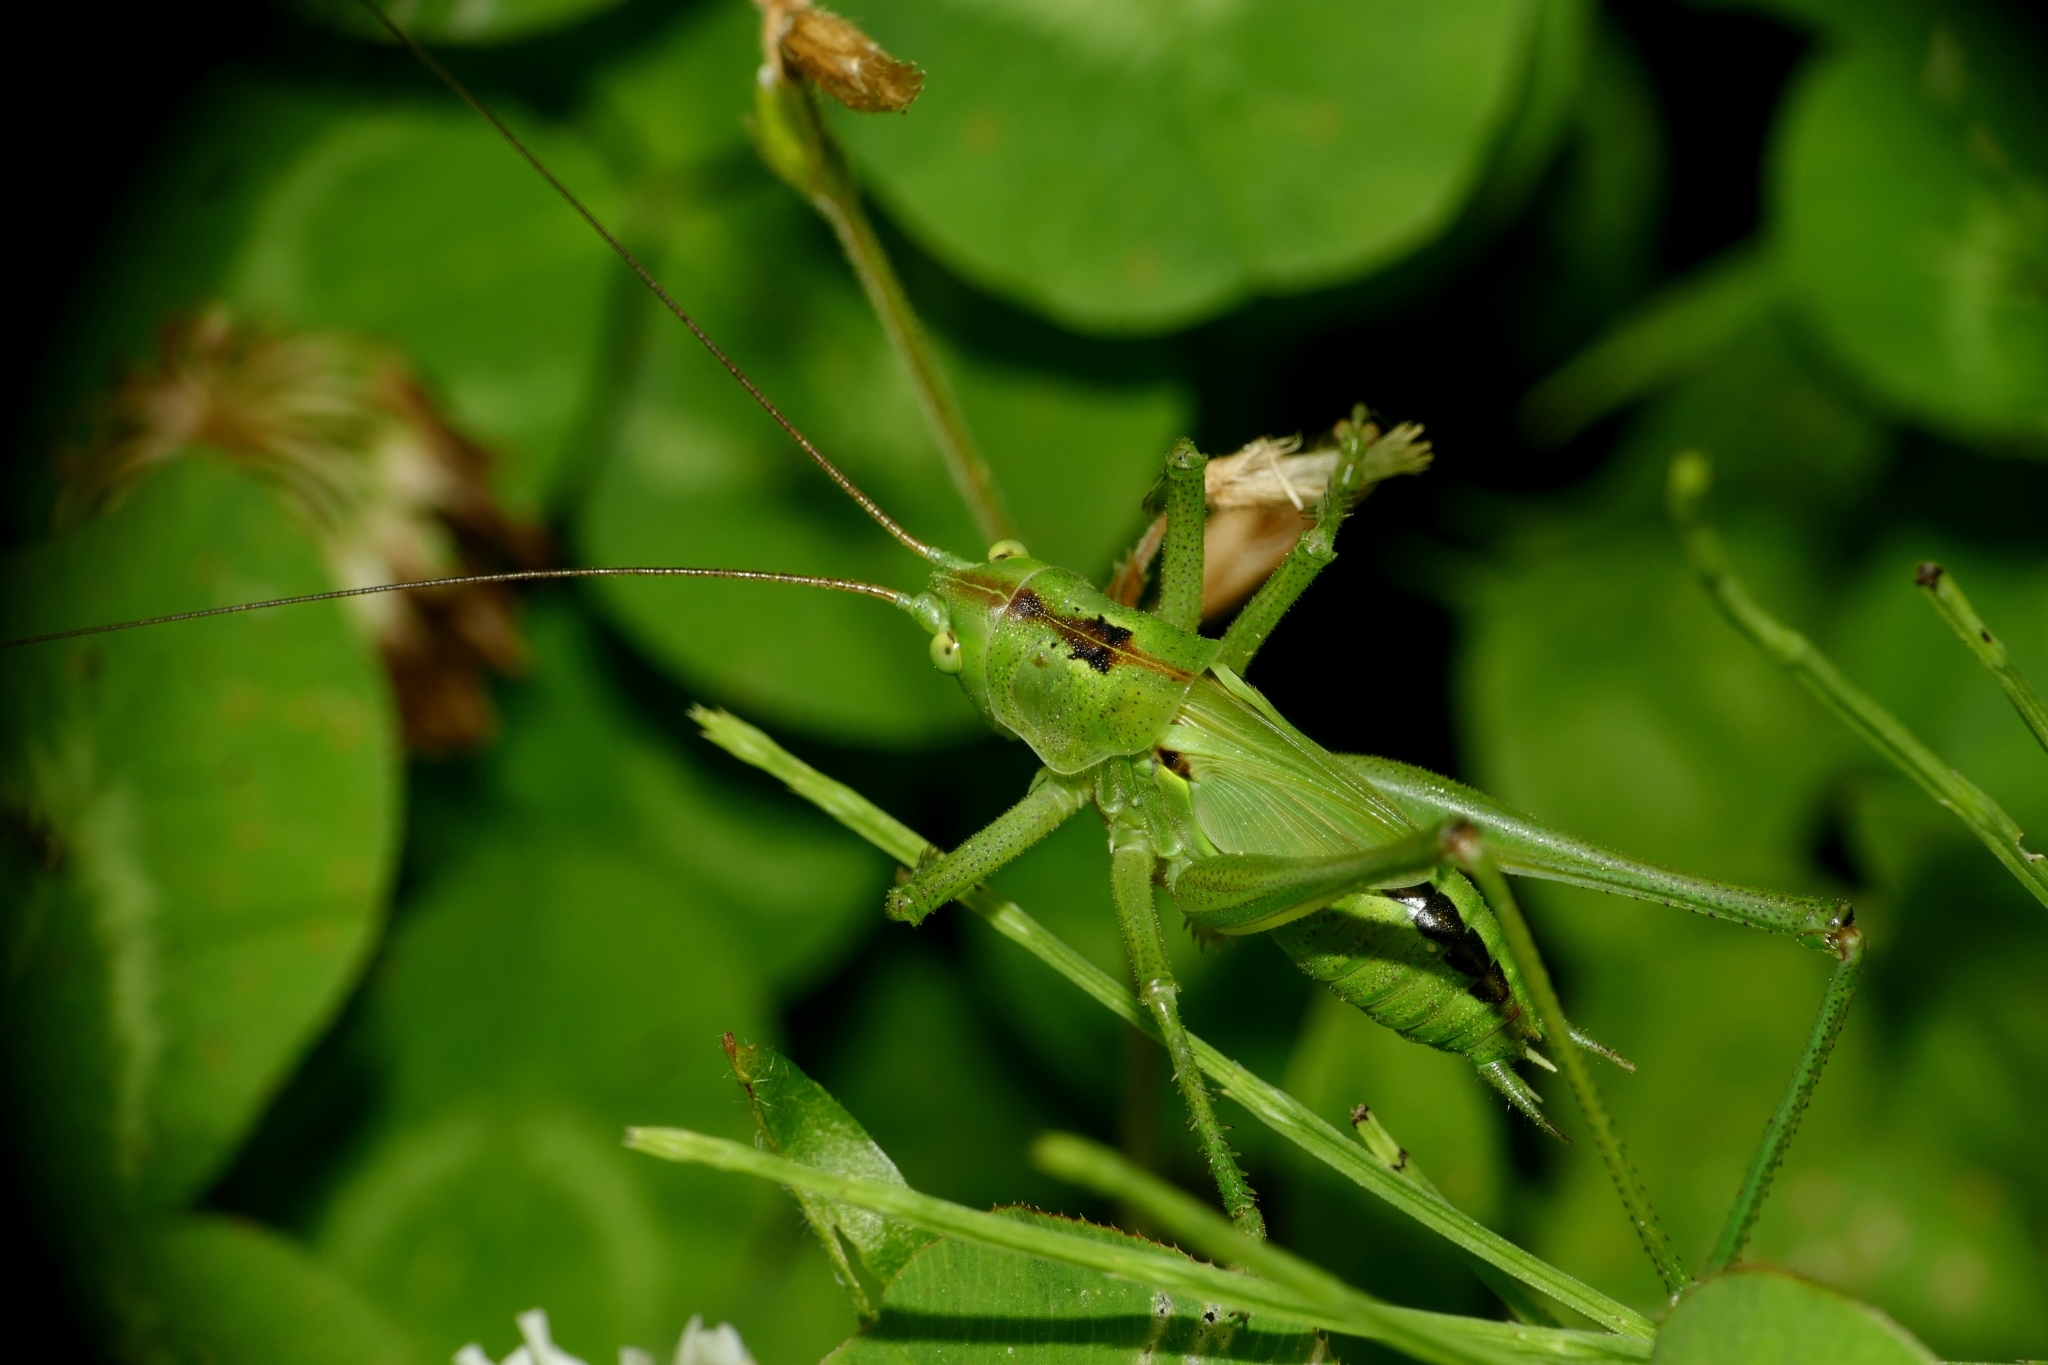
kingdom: Animalia
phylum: Arthropoda
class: Insecta
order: Orthoptera
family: Tettigoniidae
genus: Tettigonia
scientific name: Tettigonia viridissima
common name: Great green bush-cricket
